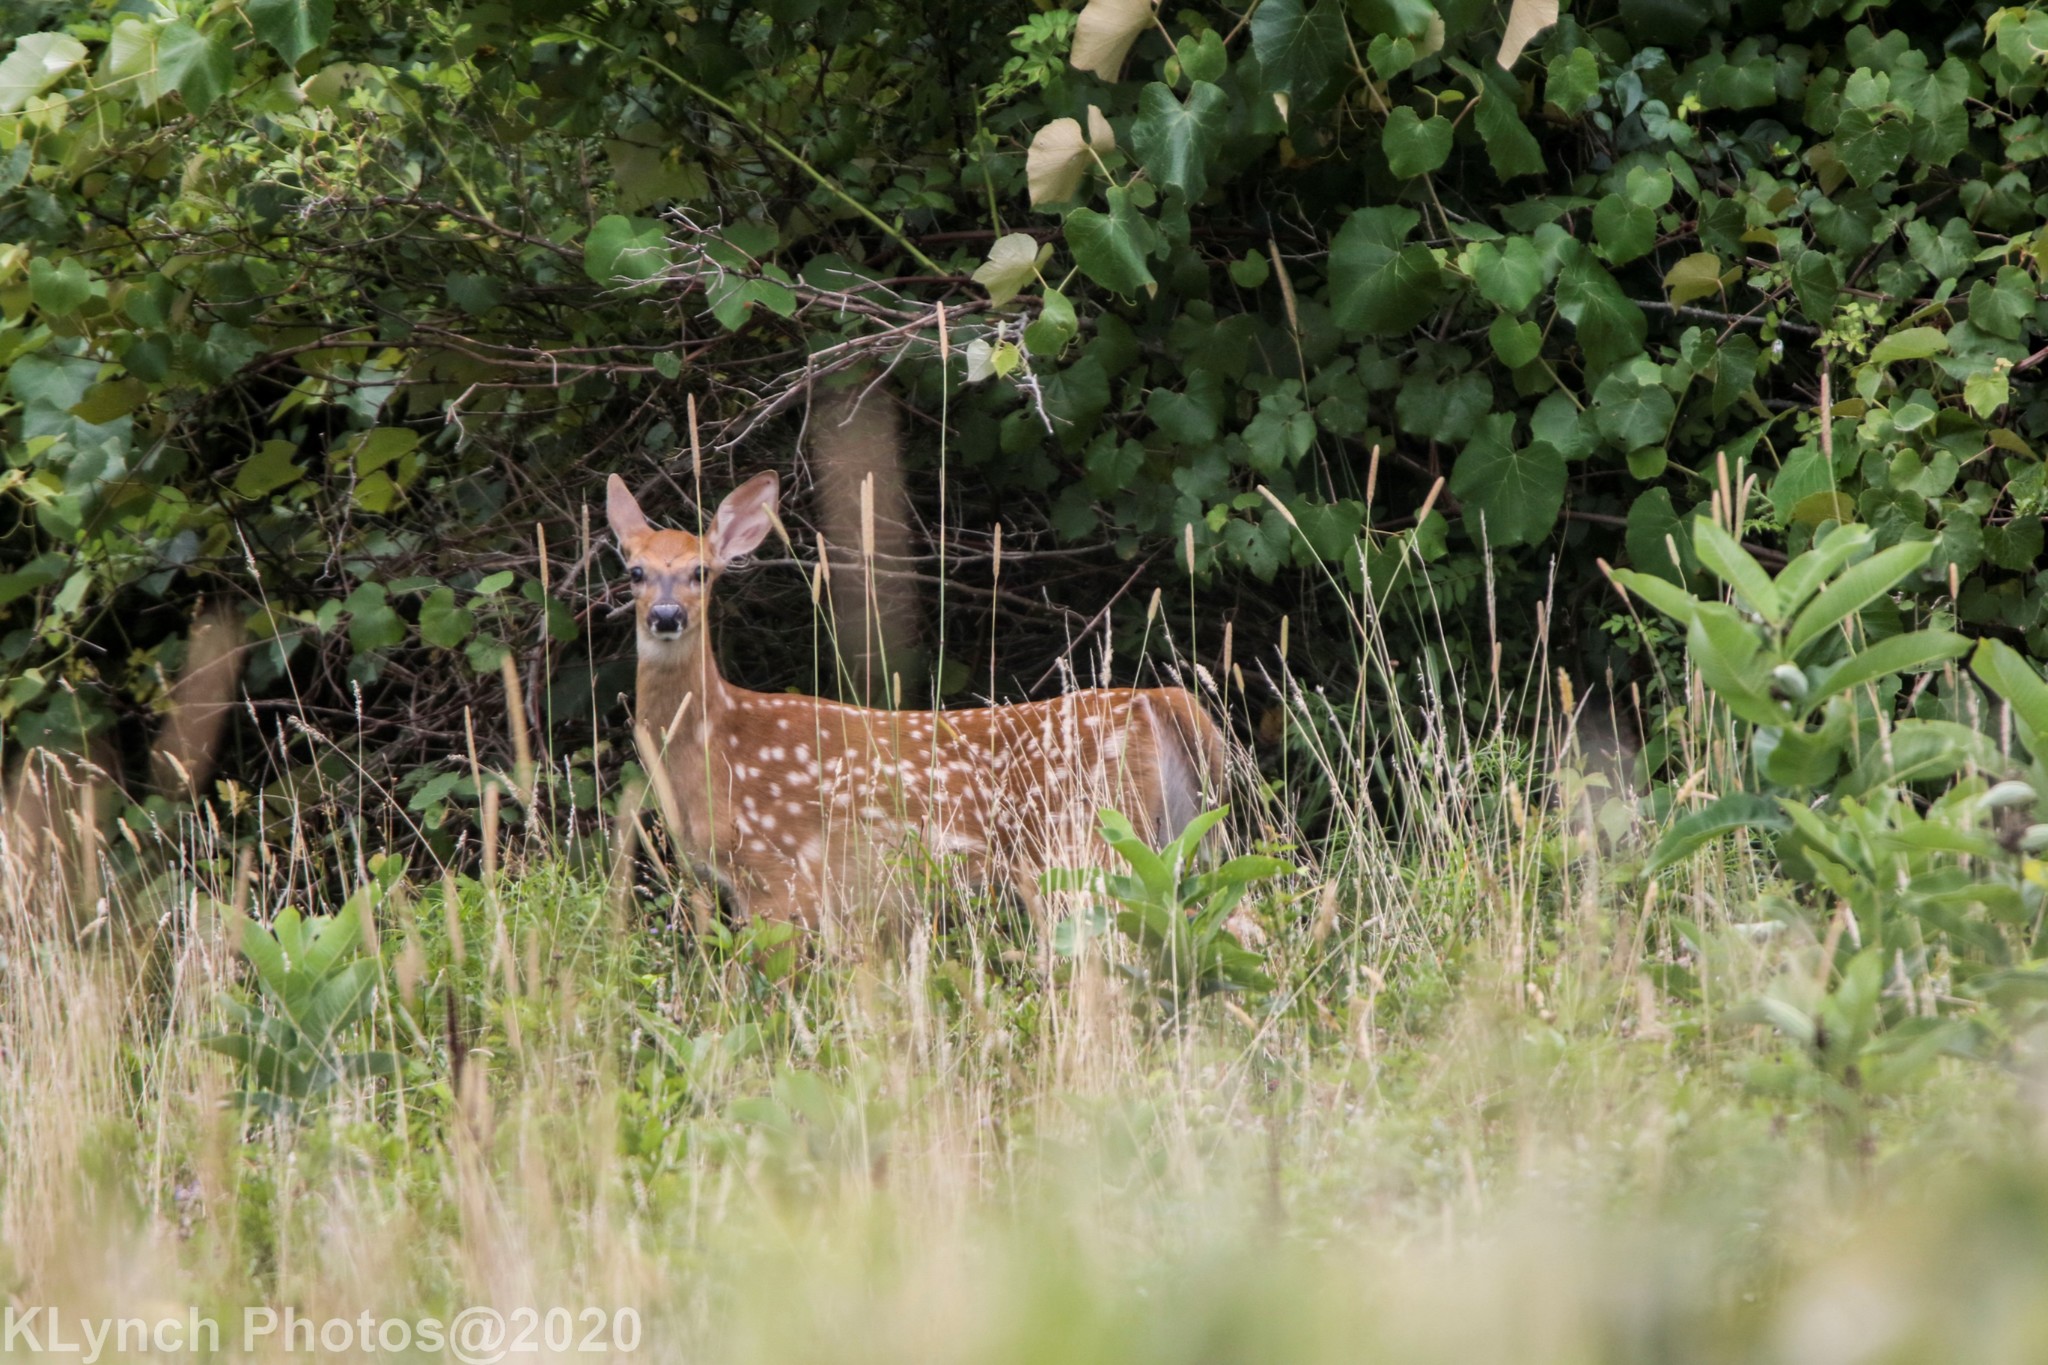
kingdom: Animalia
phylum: Chordata
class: Mammalia
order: Artiodactyla
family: Cervidae
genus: Odocoileus
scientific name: Odocoileus virginianus
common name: White-tailed deer
